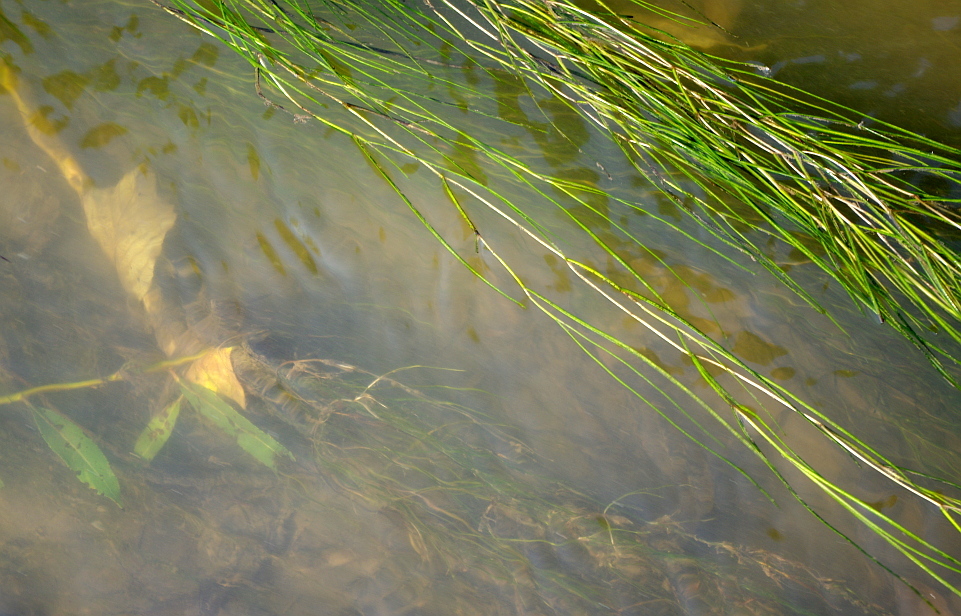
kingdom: Plantae
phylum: Tracheophyta
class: Liliopsida
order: Alismatales
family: Potamogetonaceae
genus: Stuckenia
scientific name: Stuckenia pectinata
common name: Sago pondweed
